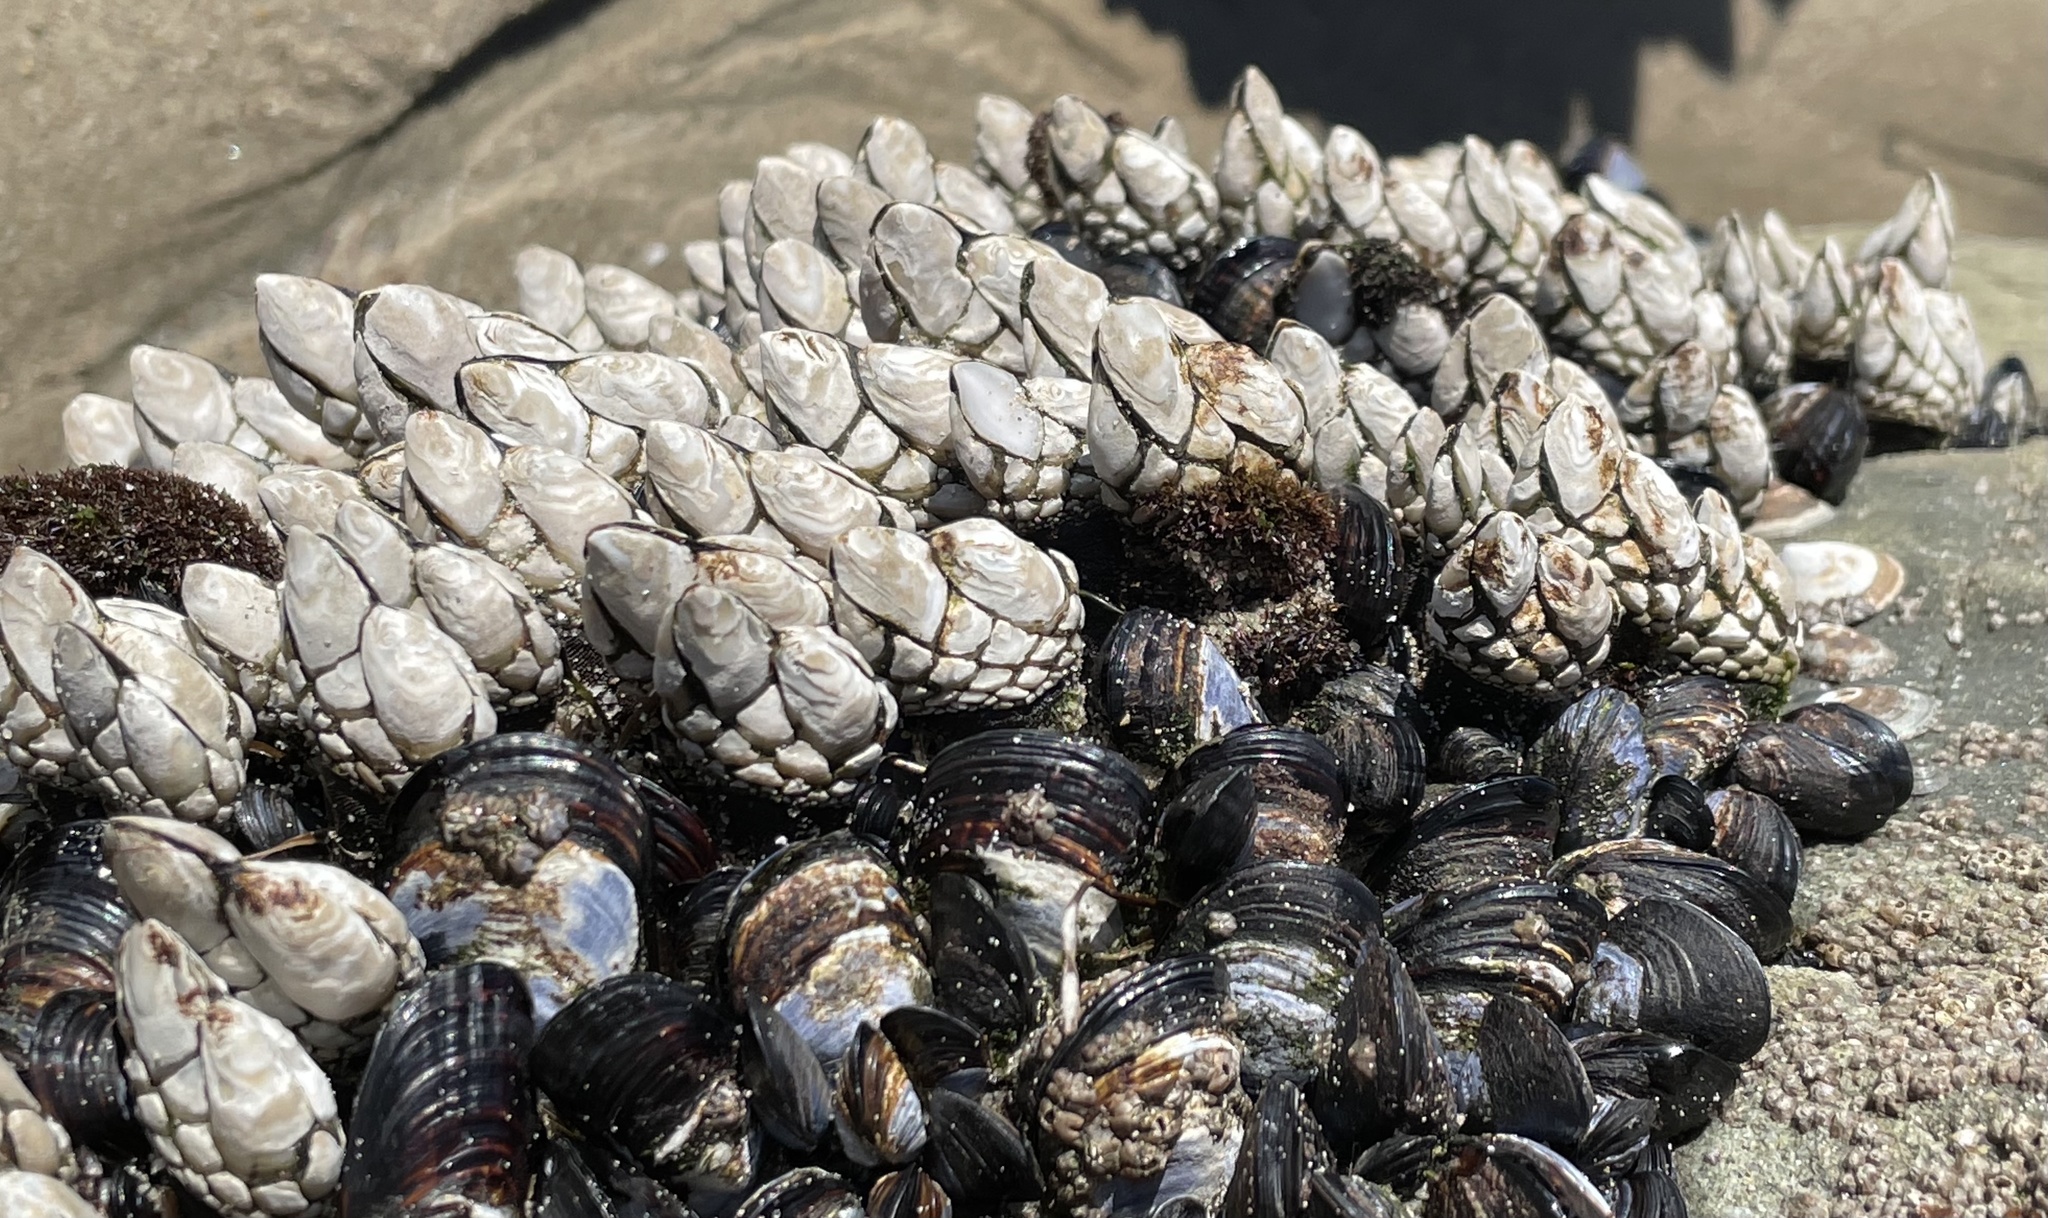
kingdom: Animalia
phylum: Arthropoda
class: Maxillopoda
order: Pedunculata
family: Pollicipedidae
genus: Pollicipes
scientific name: Pollicipes polymerus
